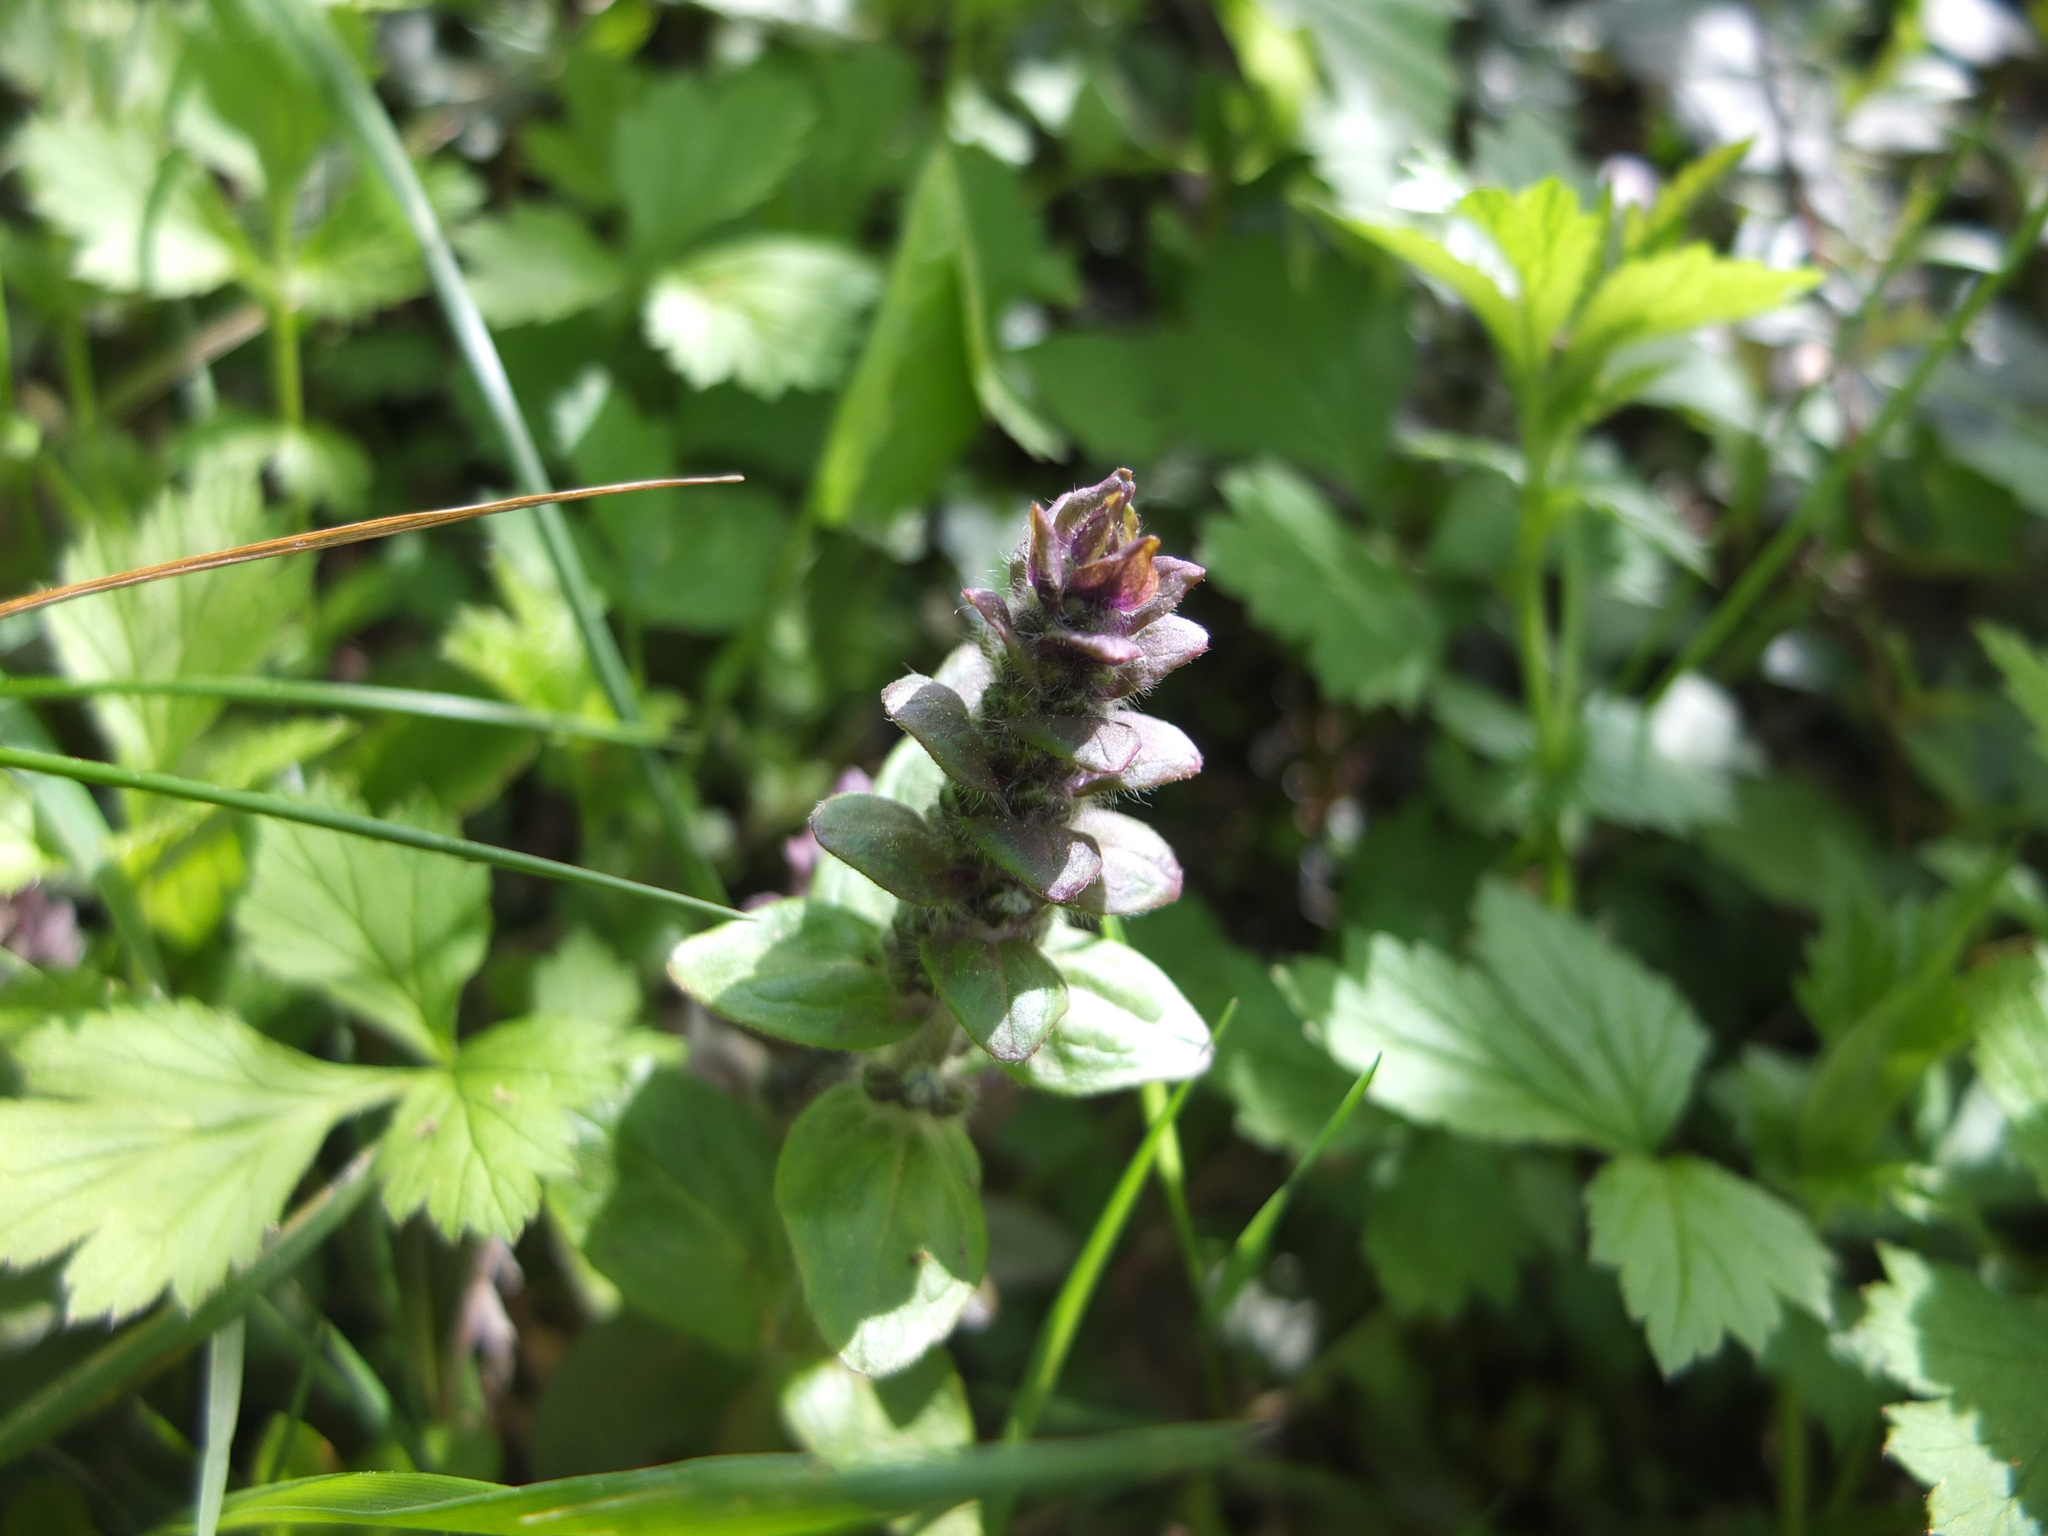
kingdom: Plantae
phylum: Tracheophyta
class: Magnoliopsida
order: Lamiales
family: Lamiaceae
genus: Ajuga
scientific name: Ajuga reptans
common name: Bugle
